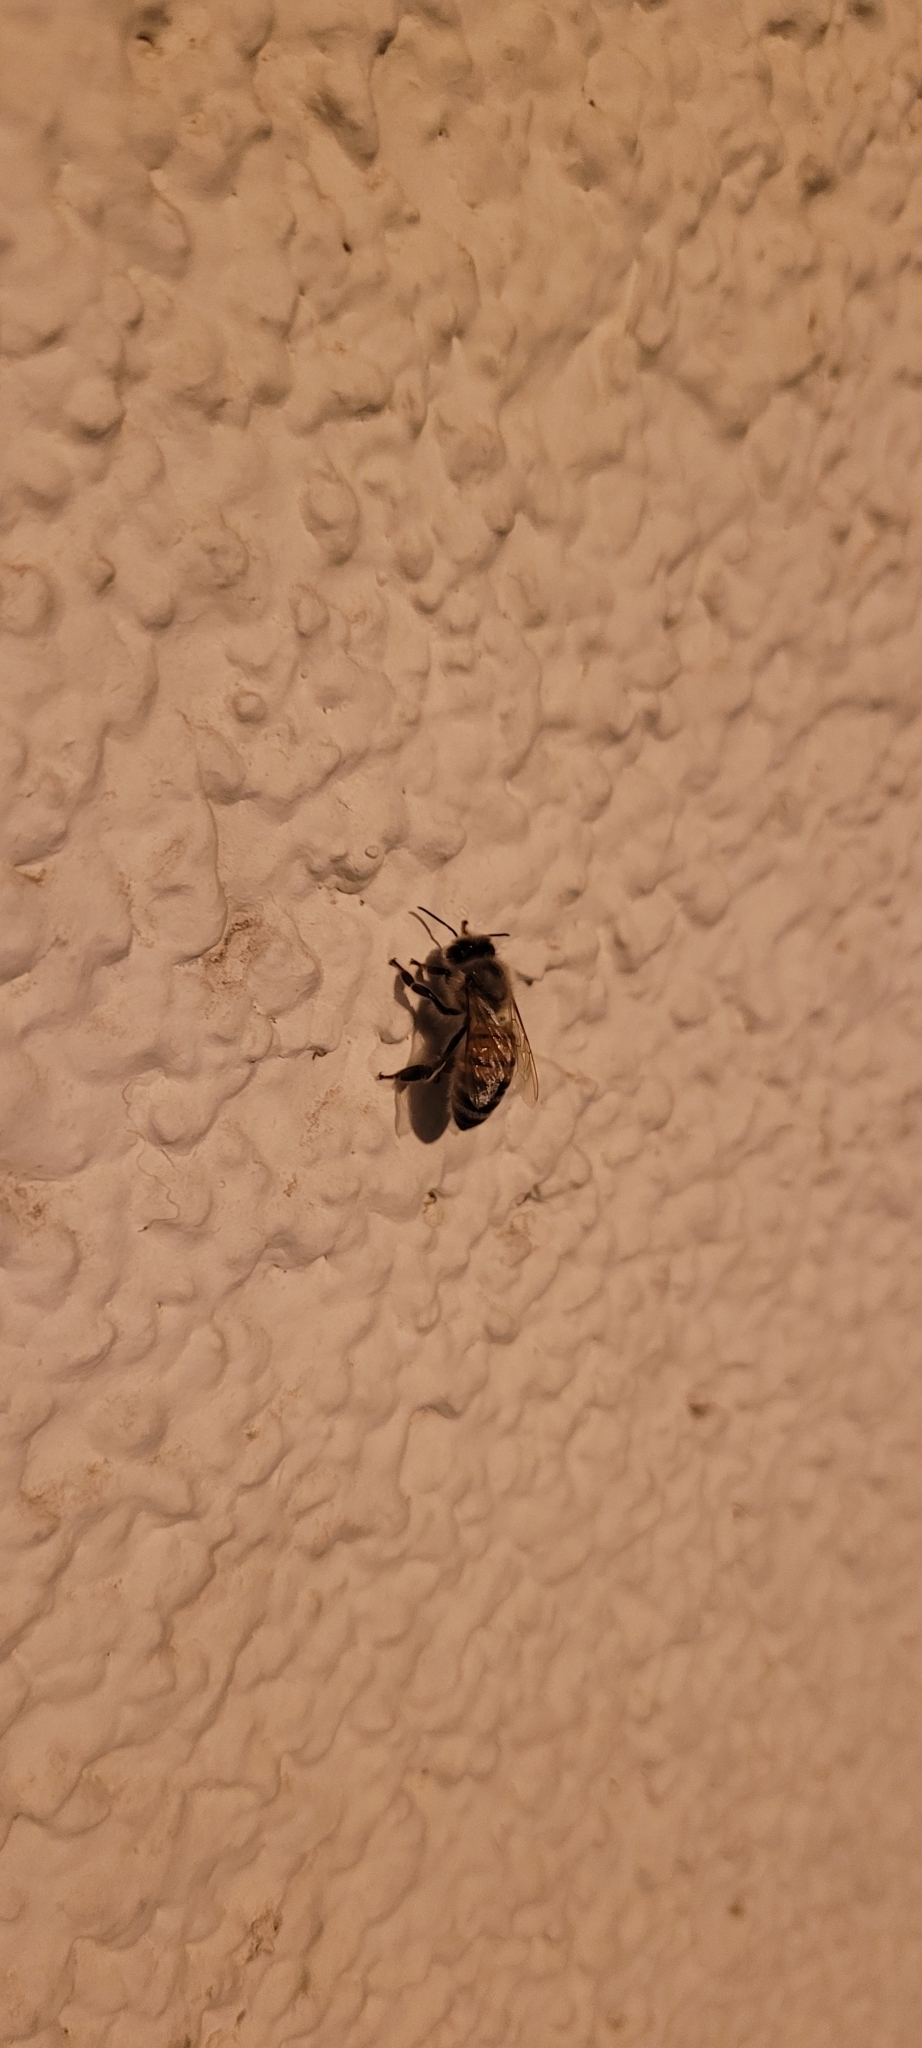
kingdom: Animalia
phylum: Arthropoda
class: Insecta
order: Hymenoptera
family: Apidae
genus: Apis
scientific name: Apis mellifera
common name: Honey bee
